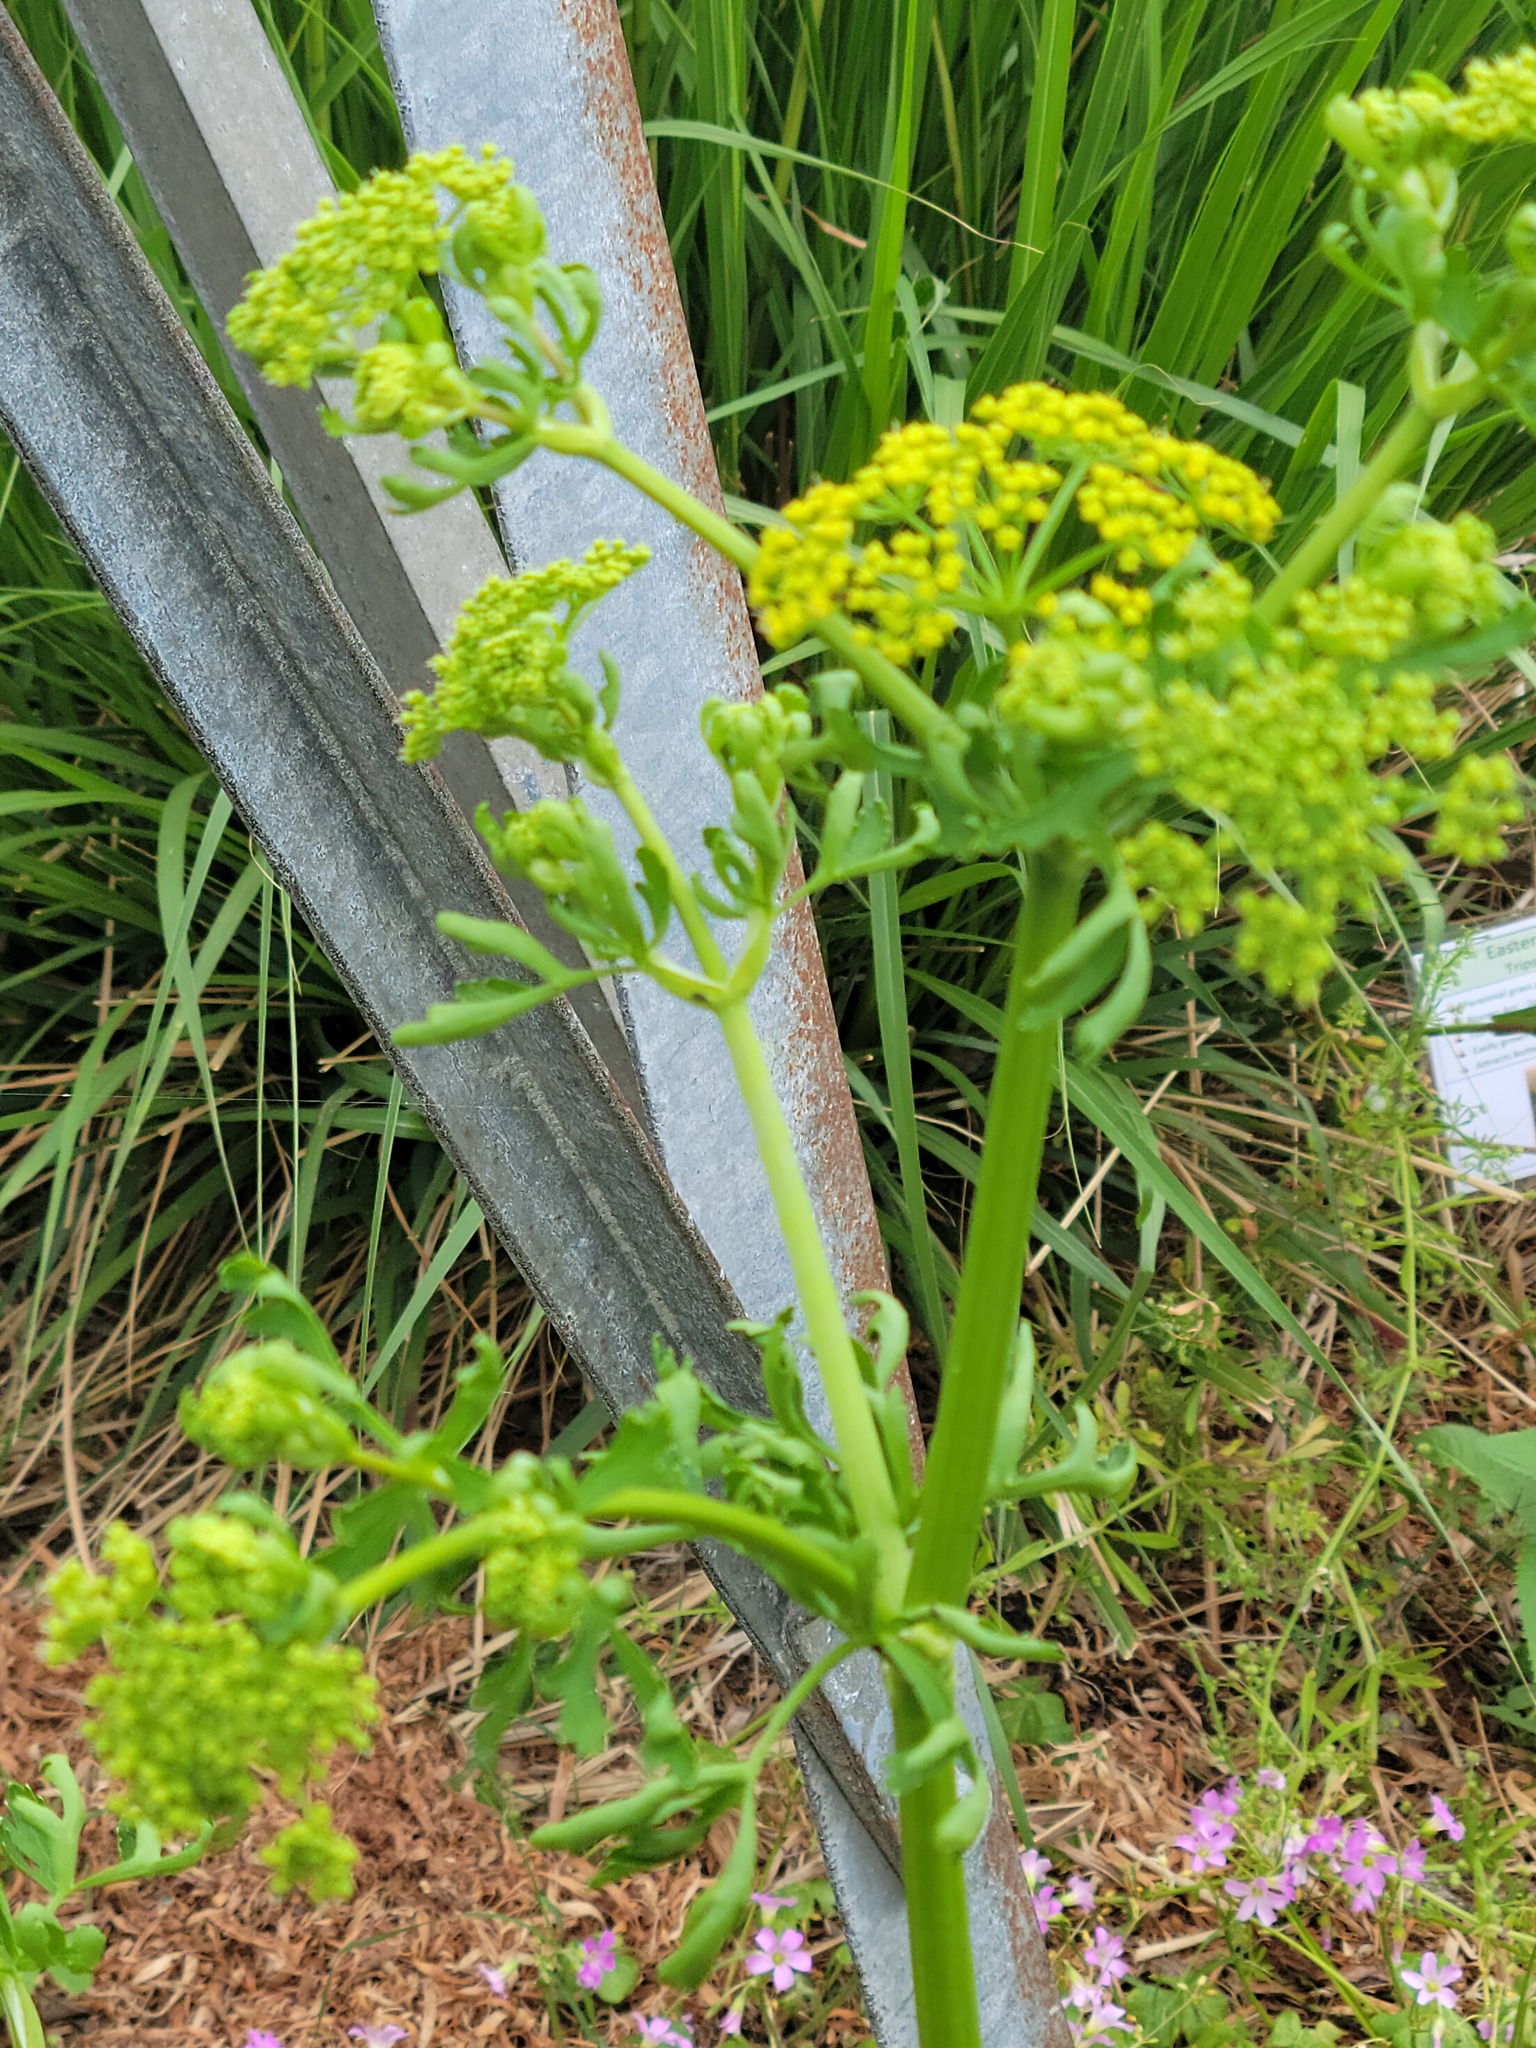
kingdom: Plantae
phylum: Tracheophyta
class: Magnoliopsida
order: Apiales
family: Apiaceae
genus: Polytaenia
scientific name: Polytaenia texana
